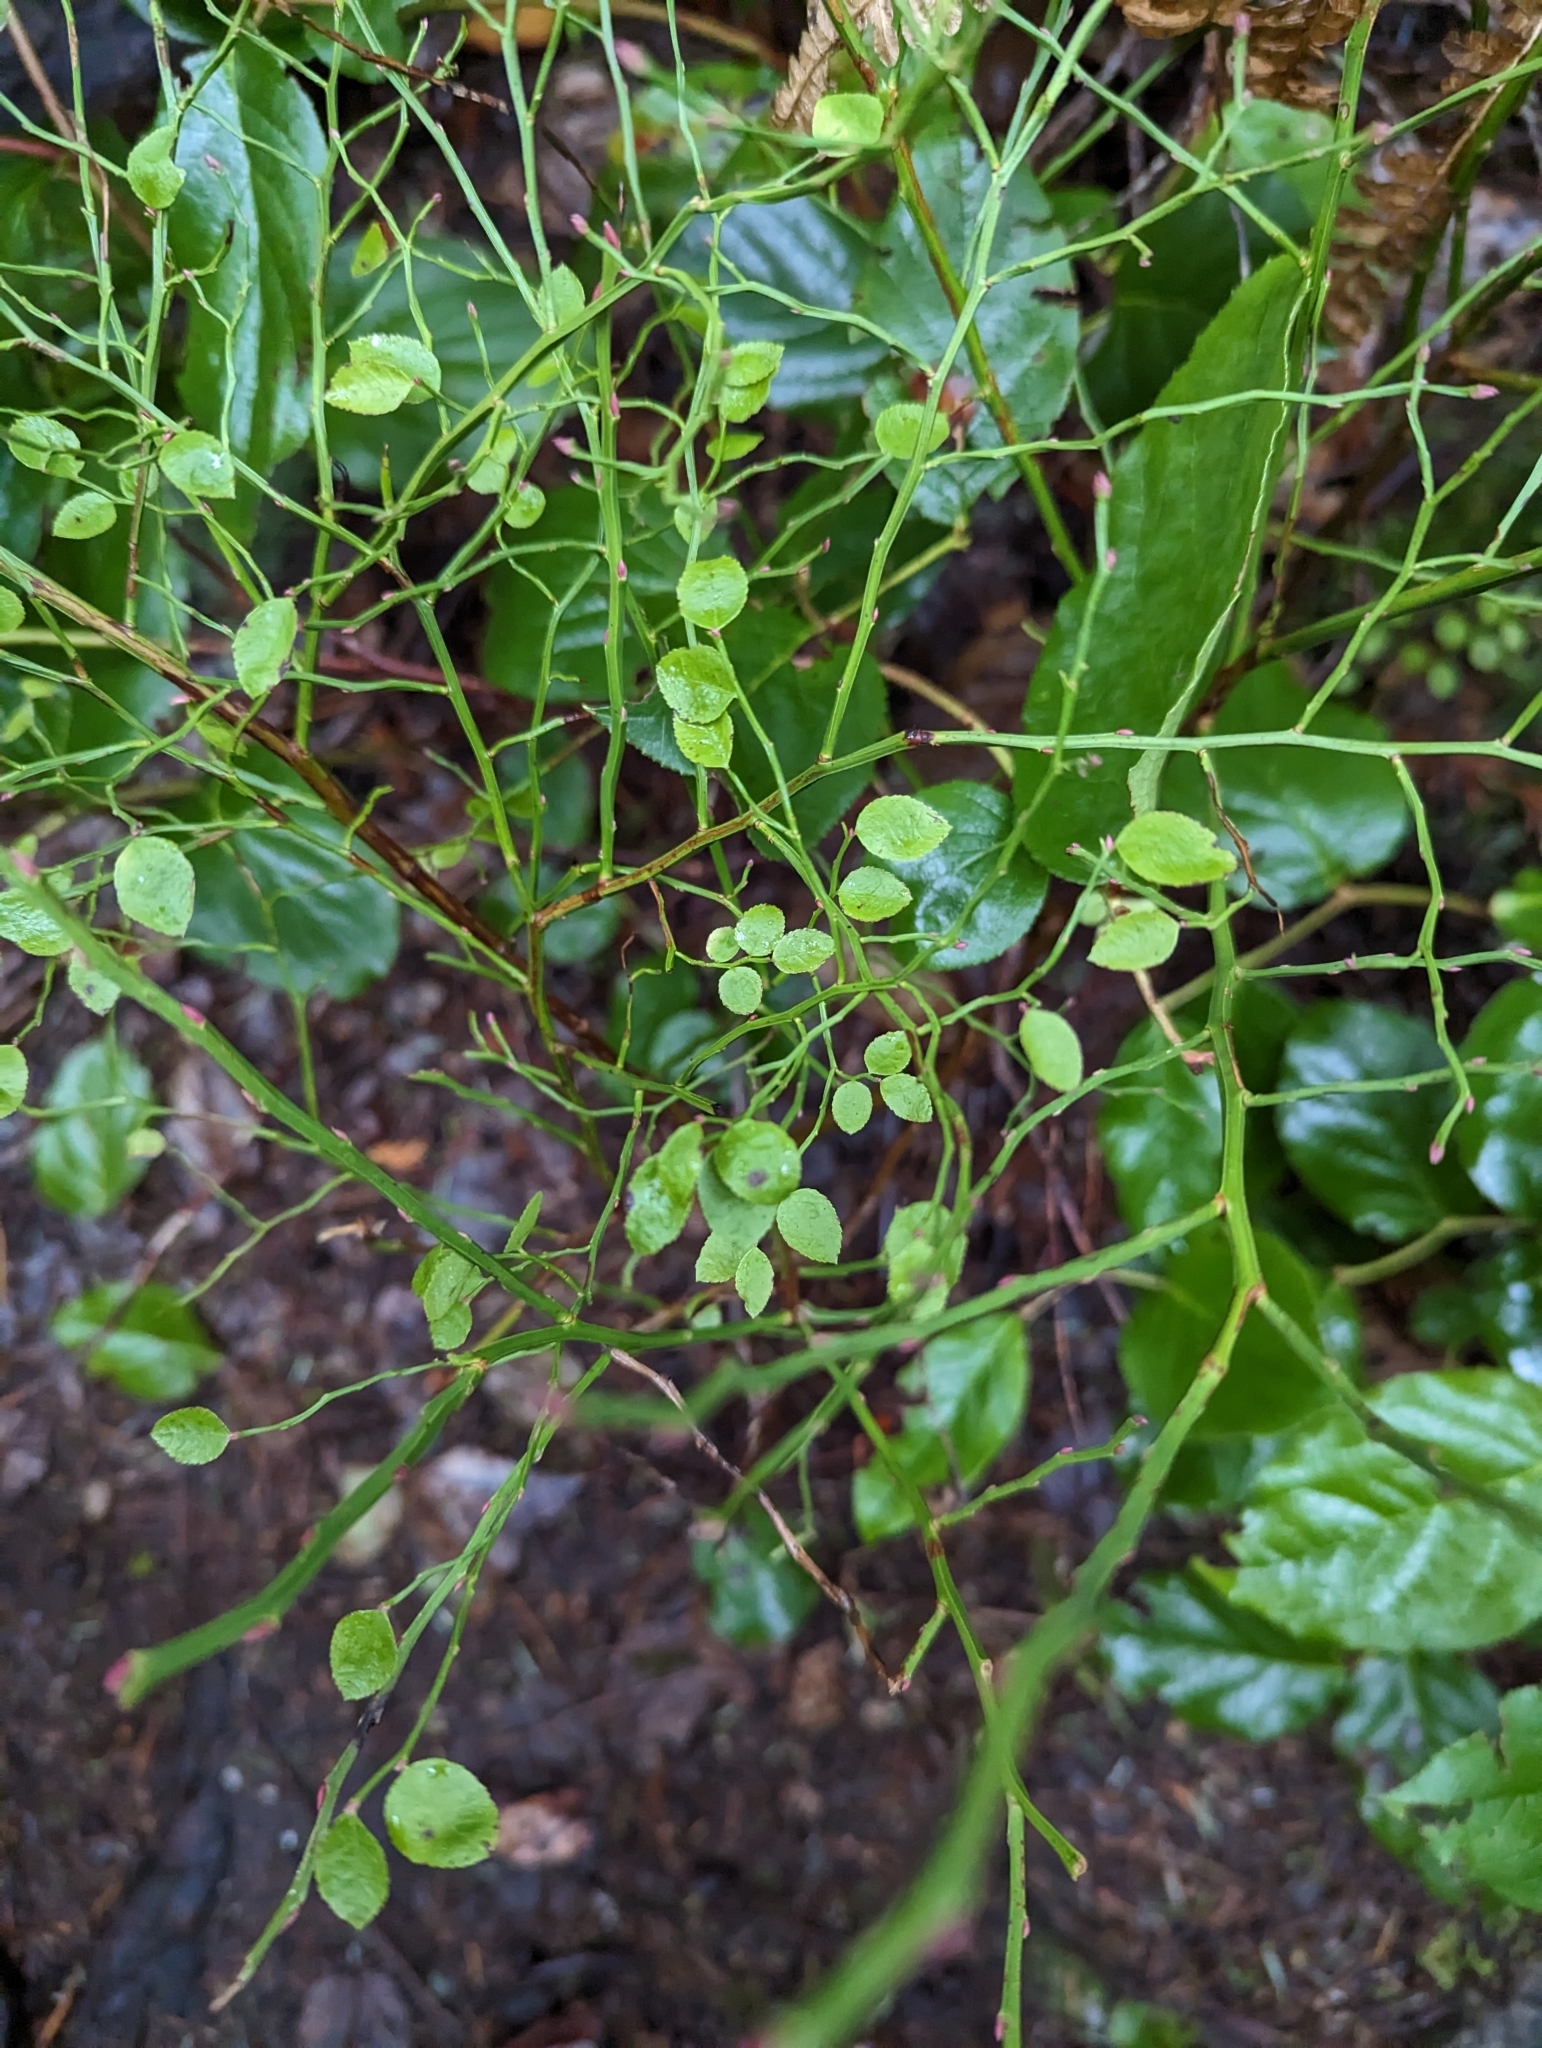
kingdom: Plantae
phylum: Tracheophyta
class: Magnoliopsida
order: Ericales
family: Ericaceae
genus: Vaccinium
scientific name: Vaccinium parvifolium
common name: Red-huckleberry
